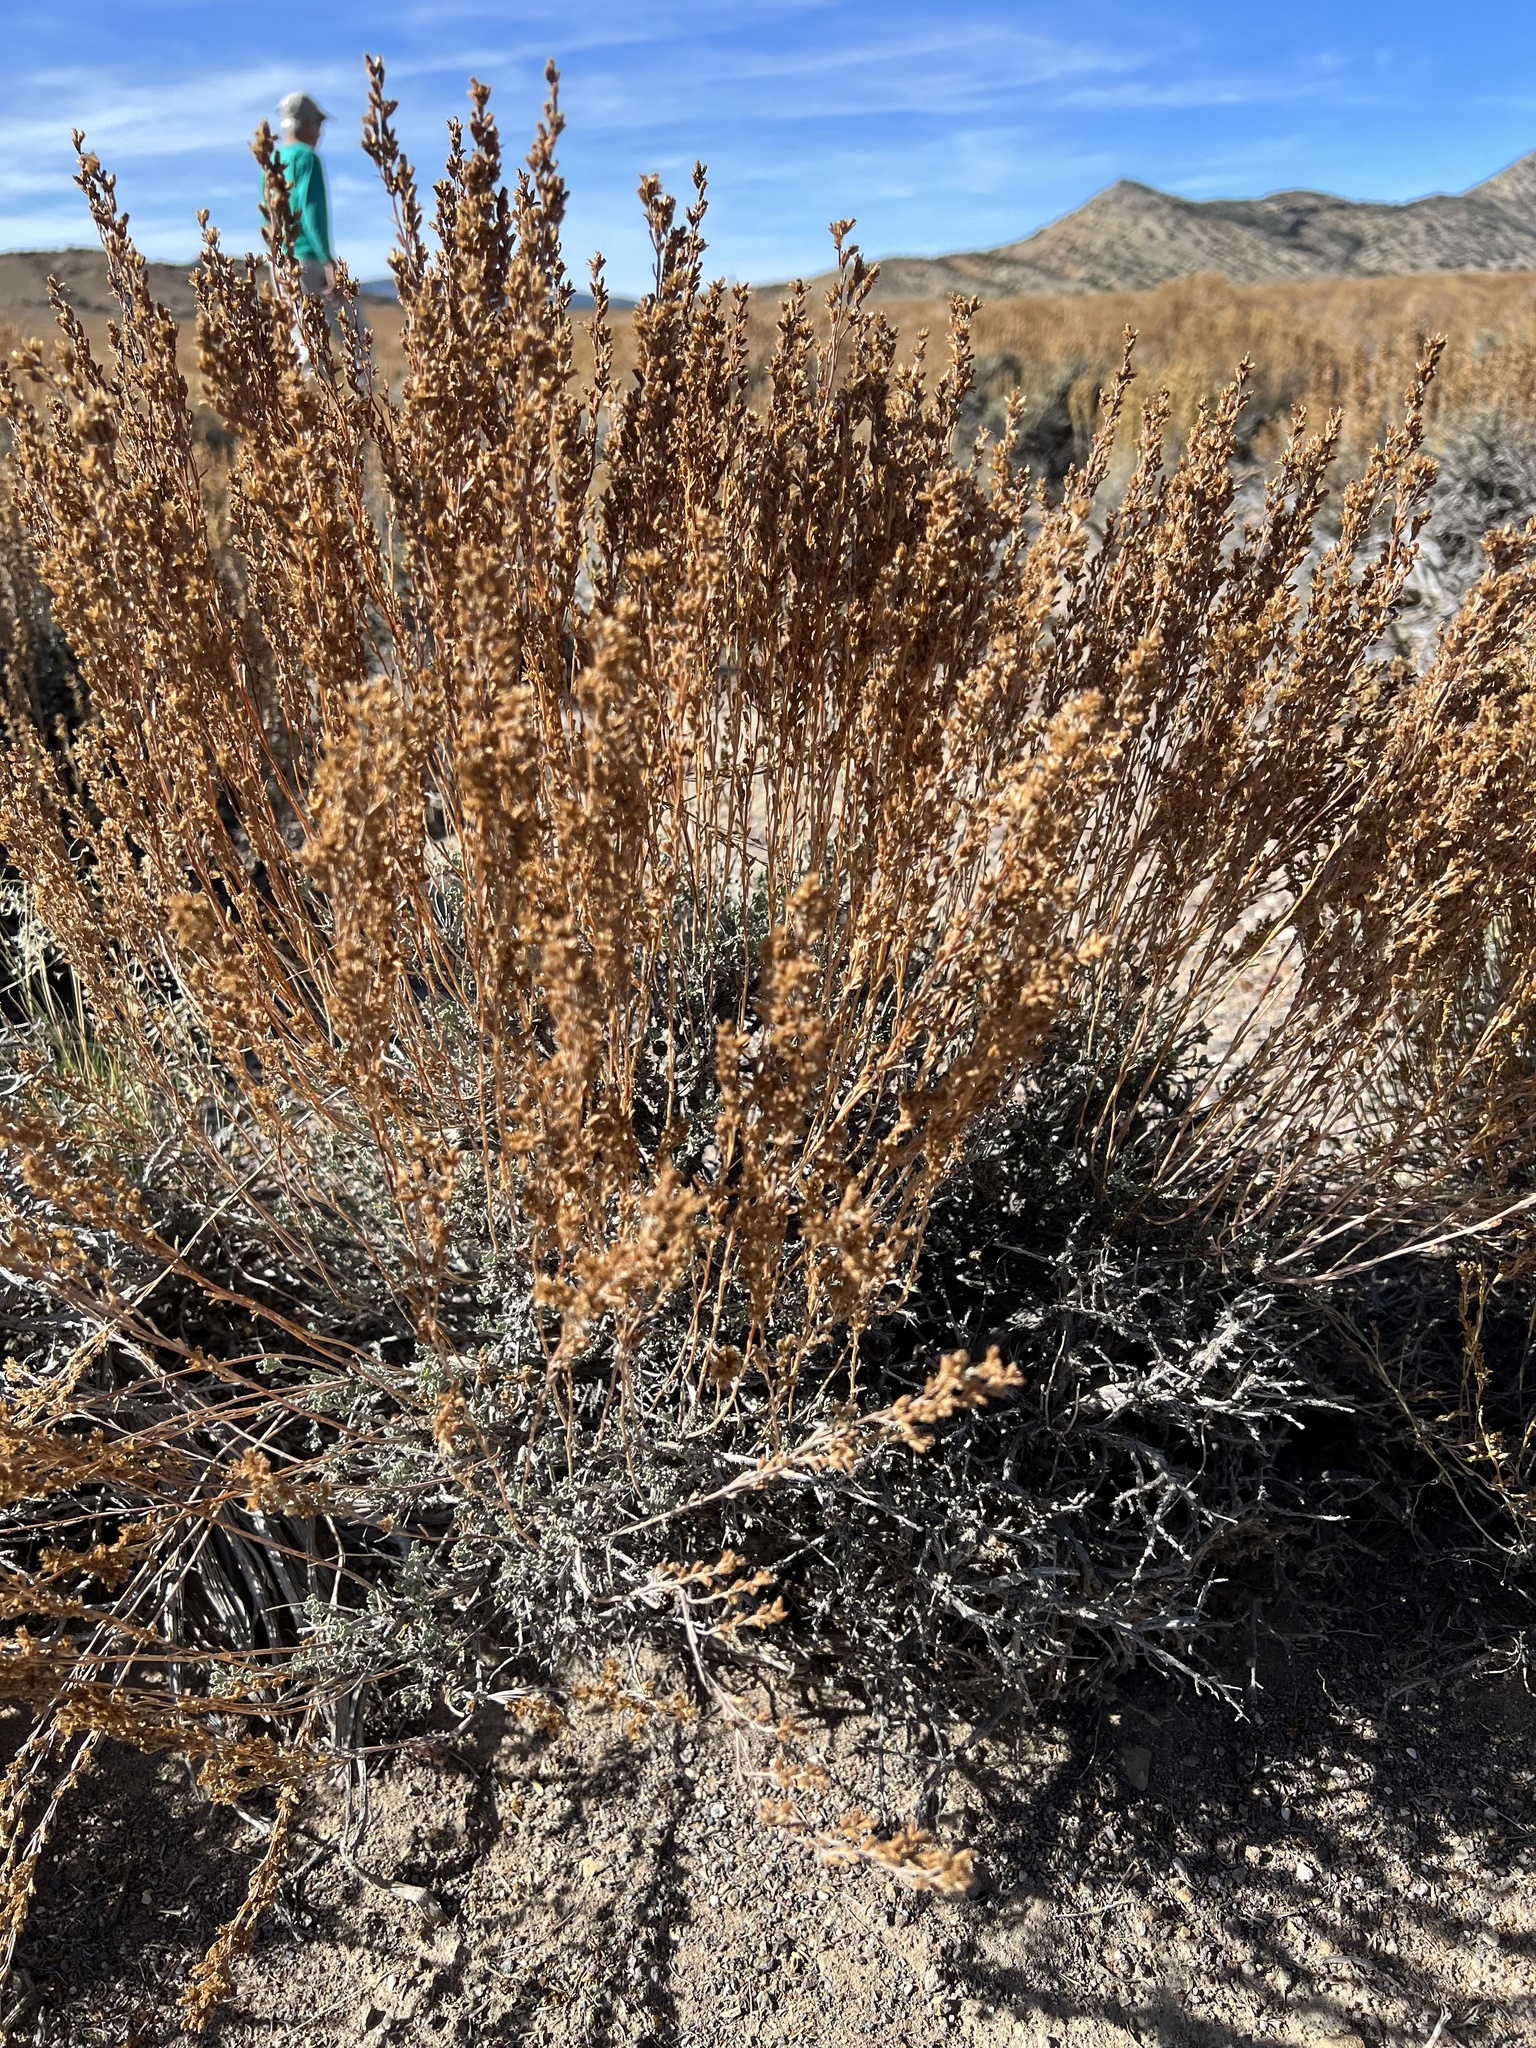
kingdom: Plantae
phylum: Tracheophyta
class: Magnoliopsida
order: Asterales
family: Asteraceae
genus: Artemisia
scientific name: Artemisia nova
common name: Black-sage
